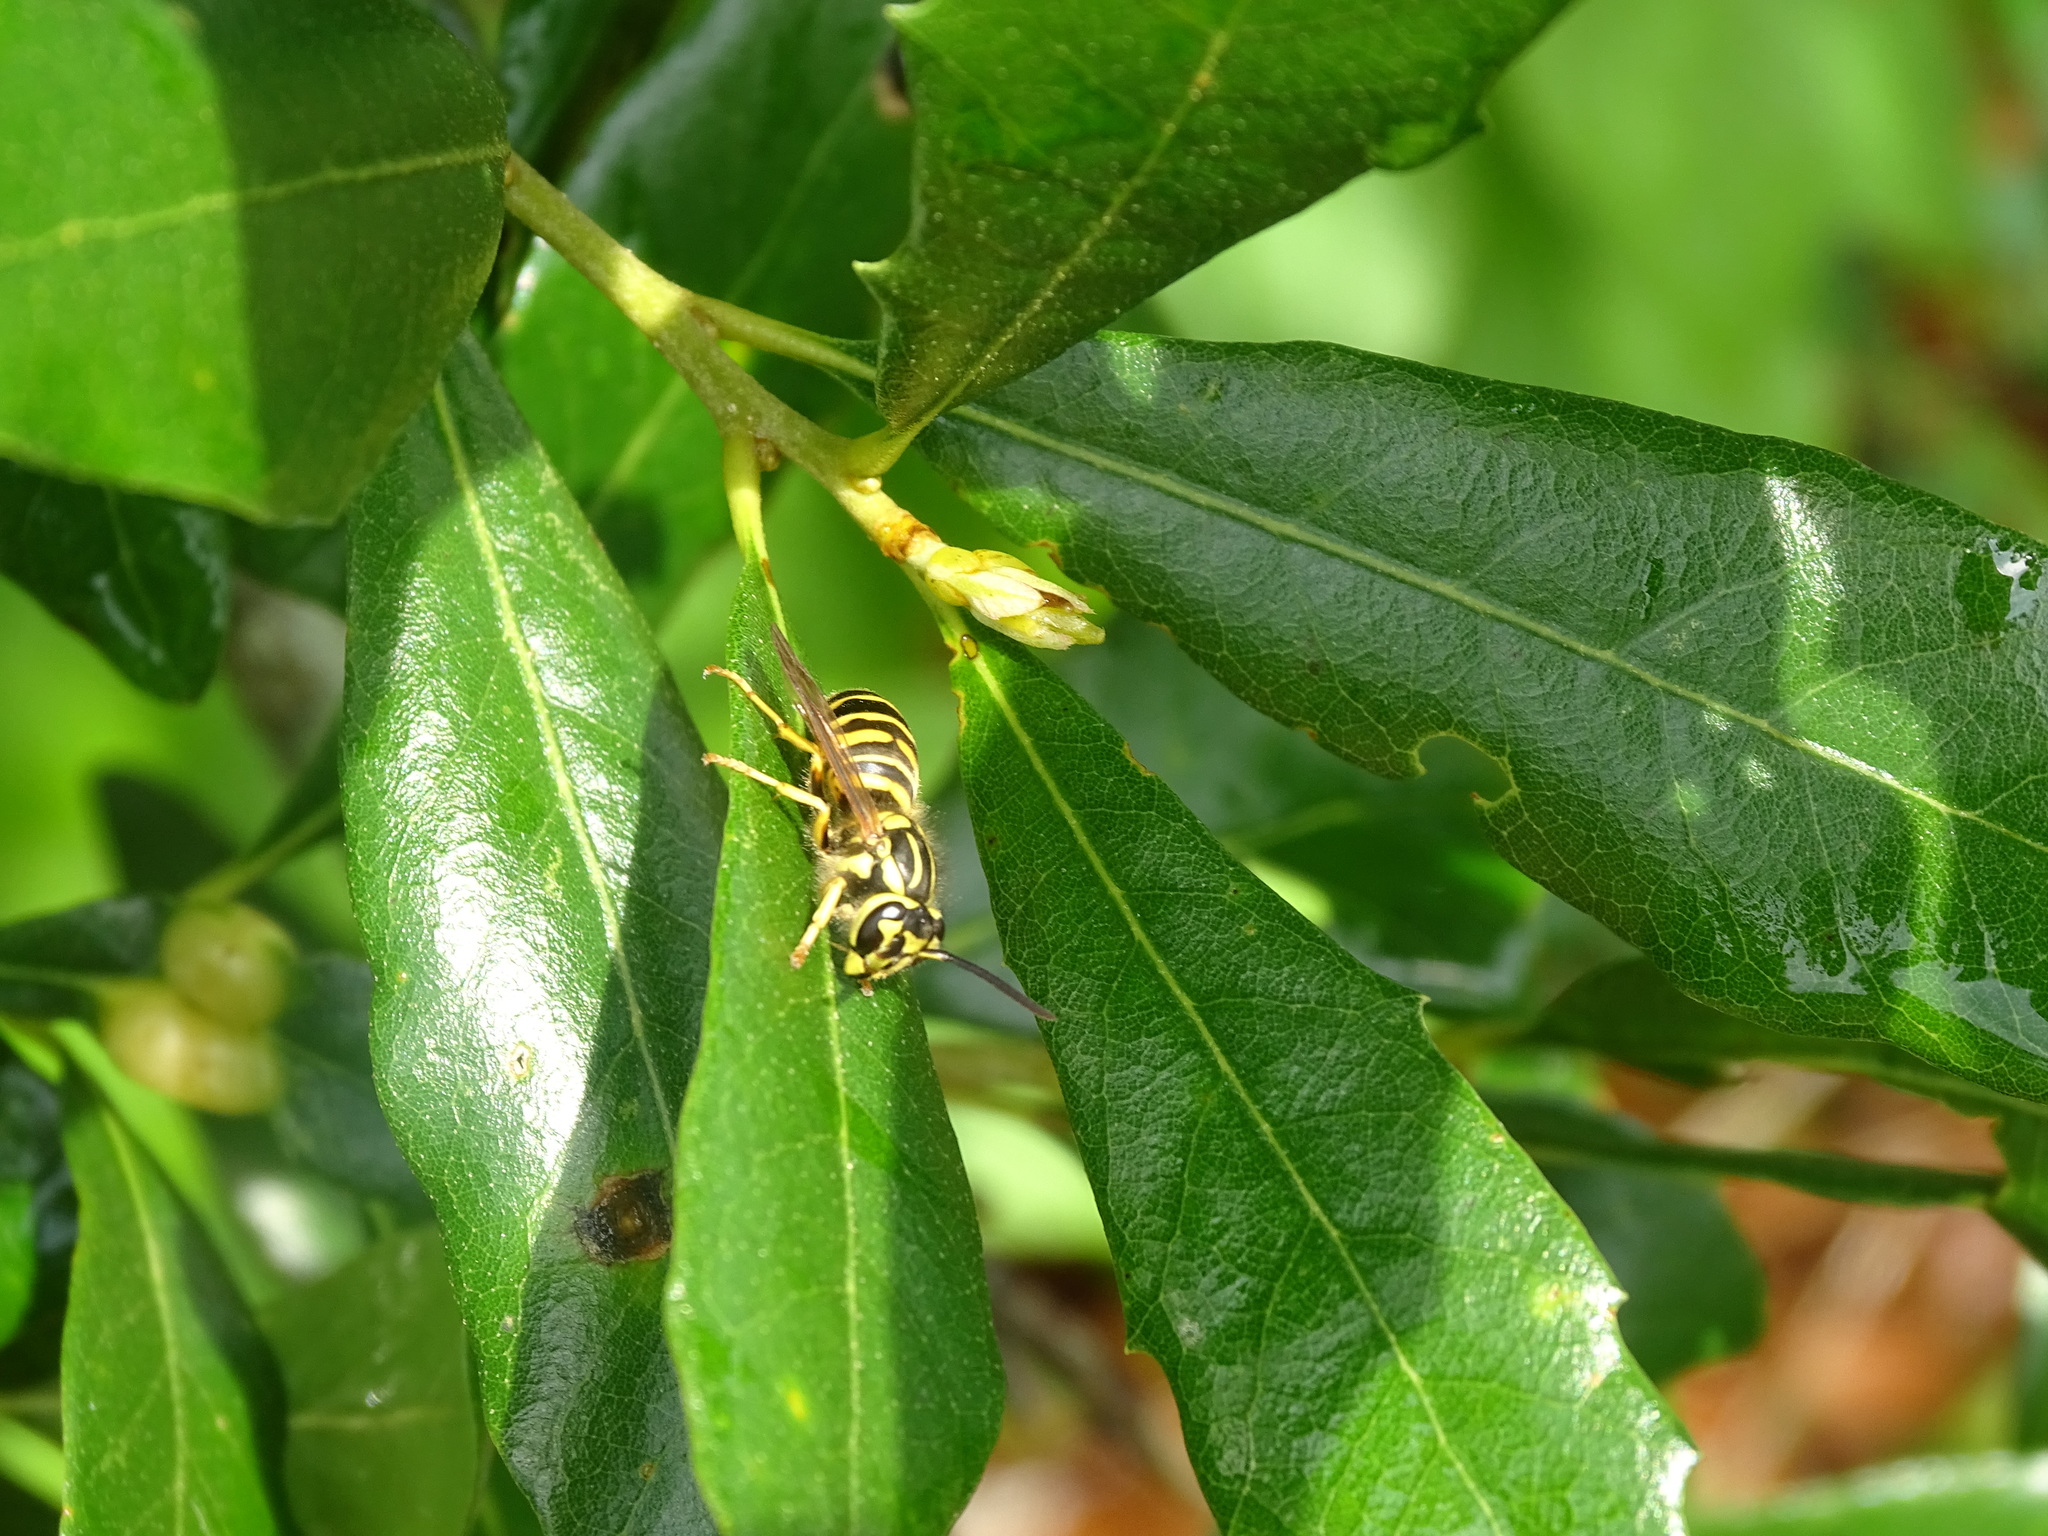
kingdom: Animalia
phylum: Arthropoda
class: Insecta
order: Hymenoptera
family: Vespidae
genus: Vespula
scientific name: Vespula squamosa
